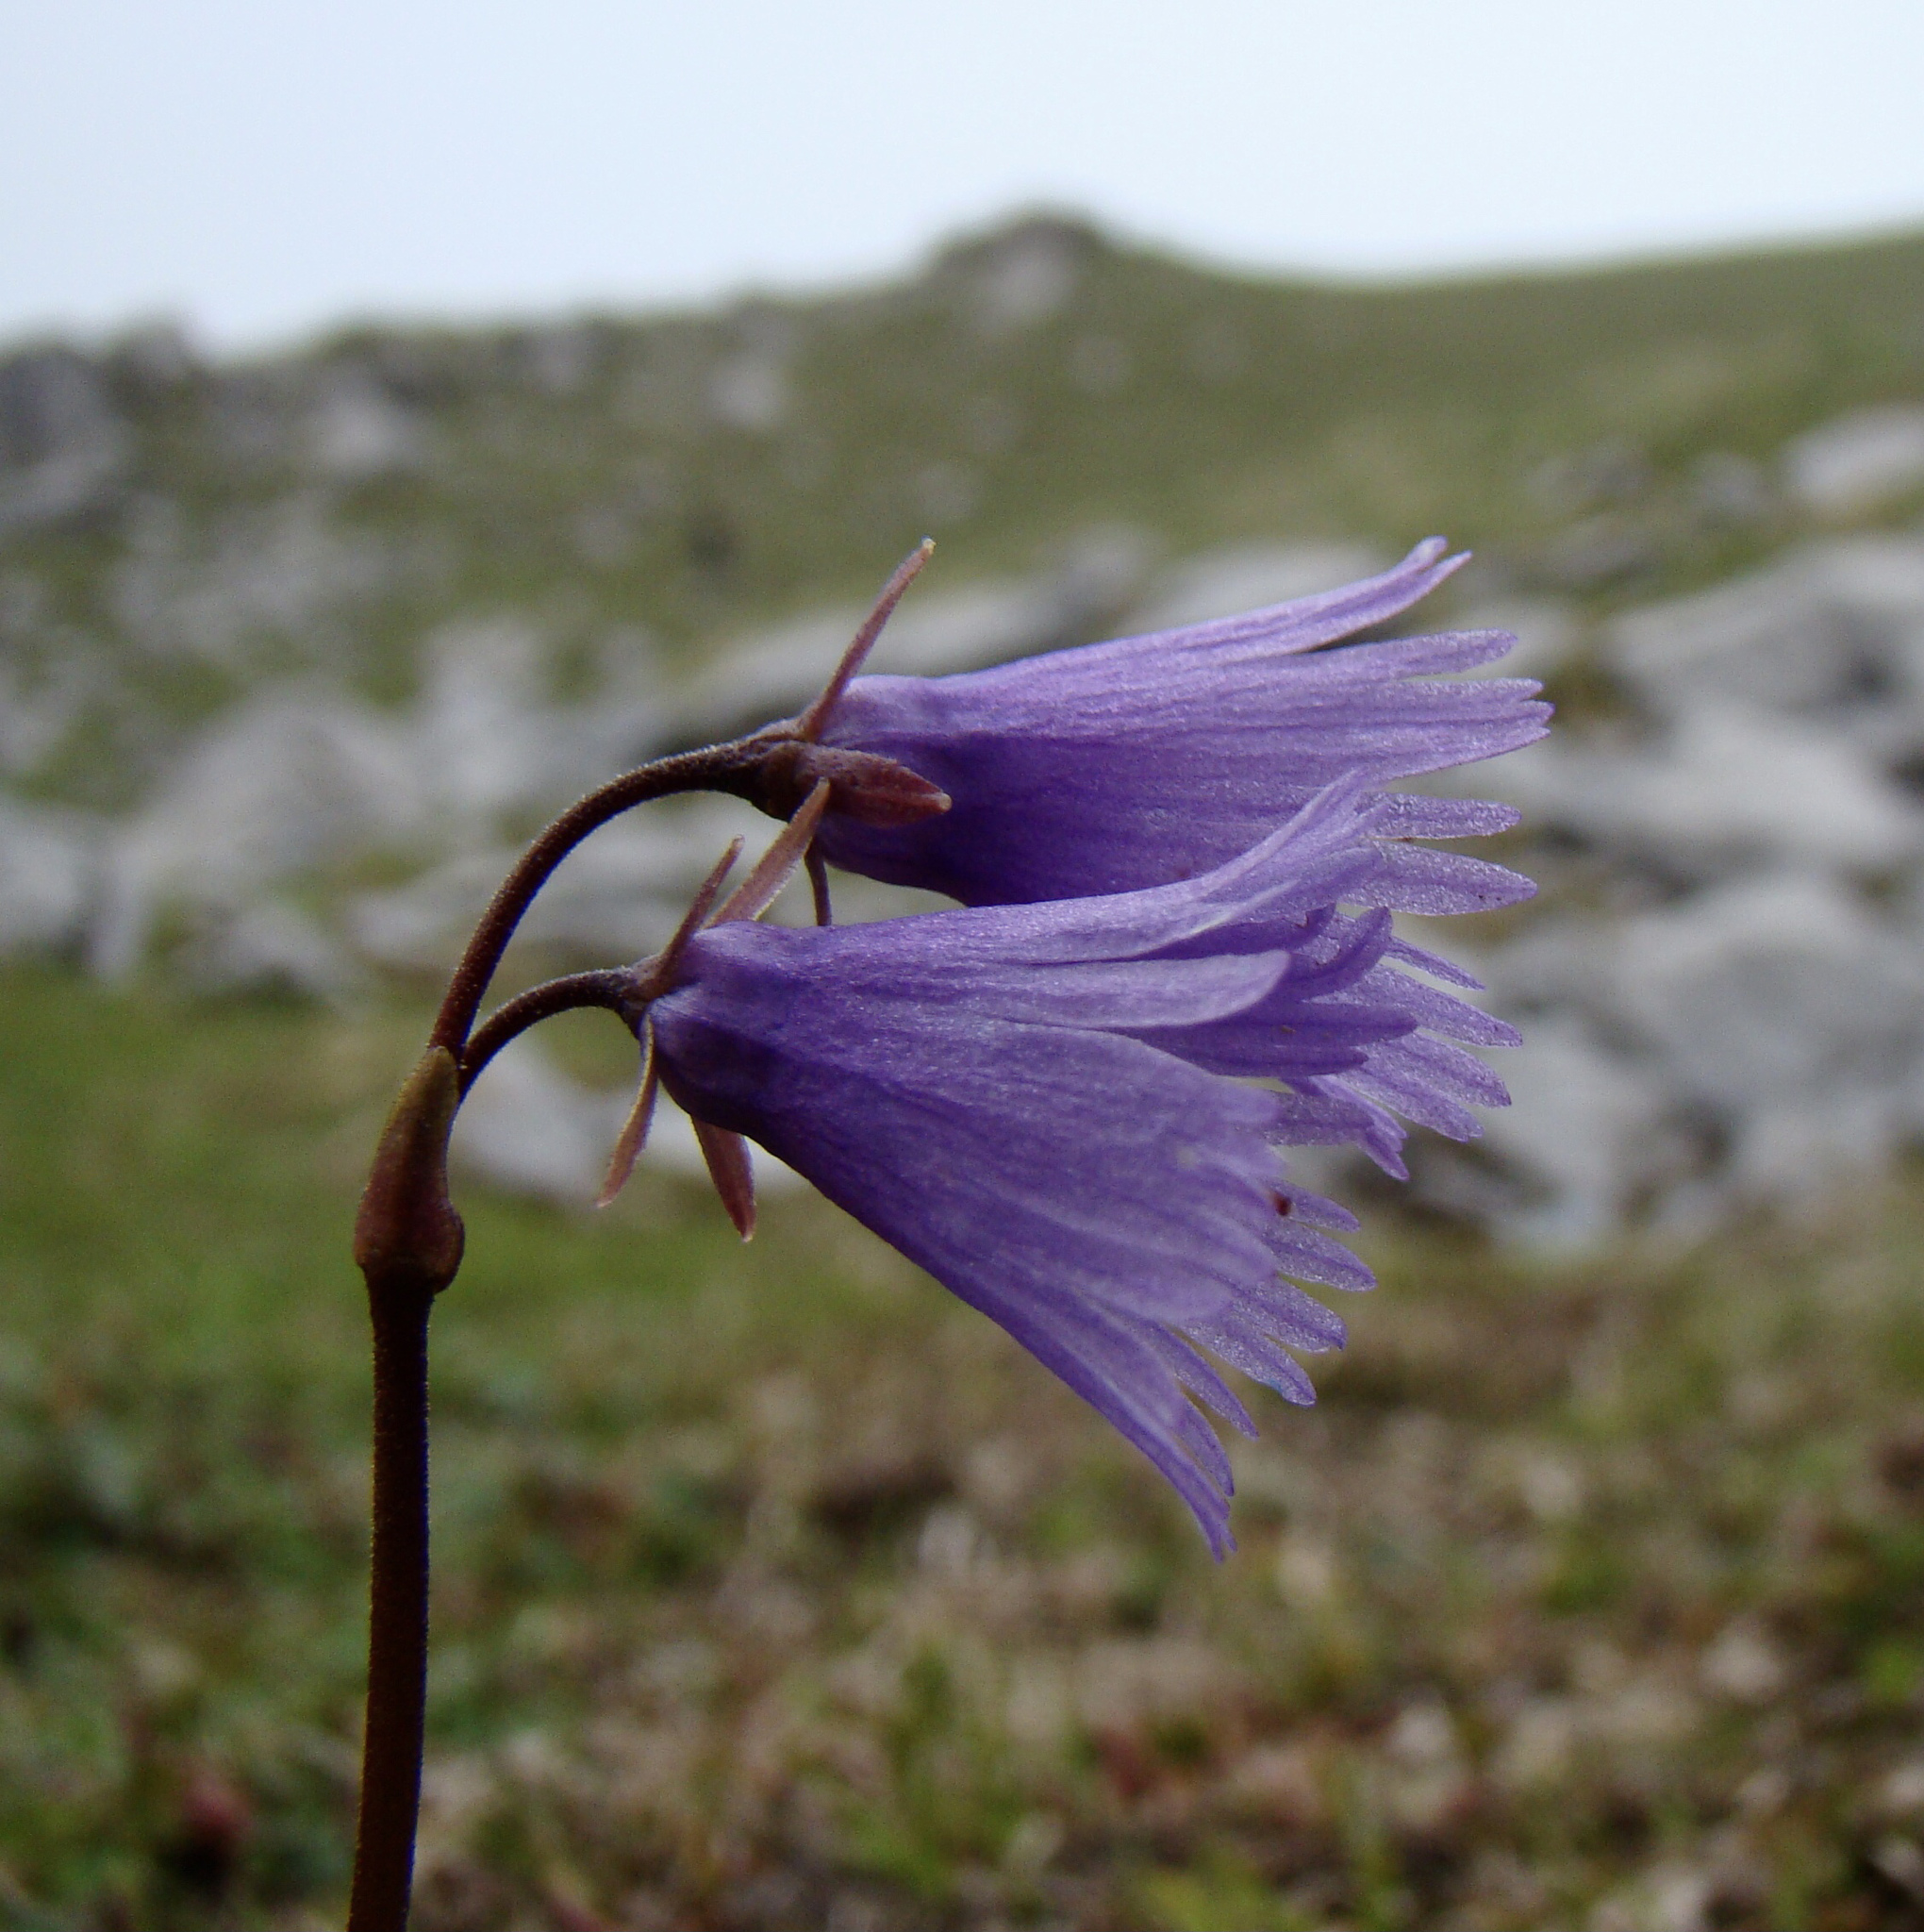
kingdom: Plantae
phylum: Tracheophyta
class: Magnoliopsida
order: Ericales
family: Primulaceae
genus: Soldanella
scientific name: Soldanella alpina
